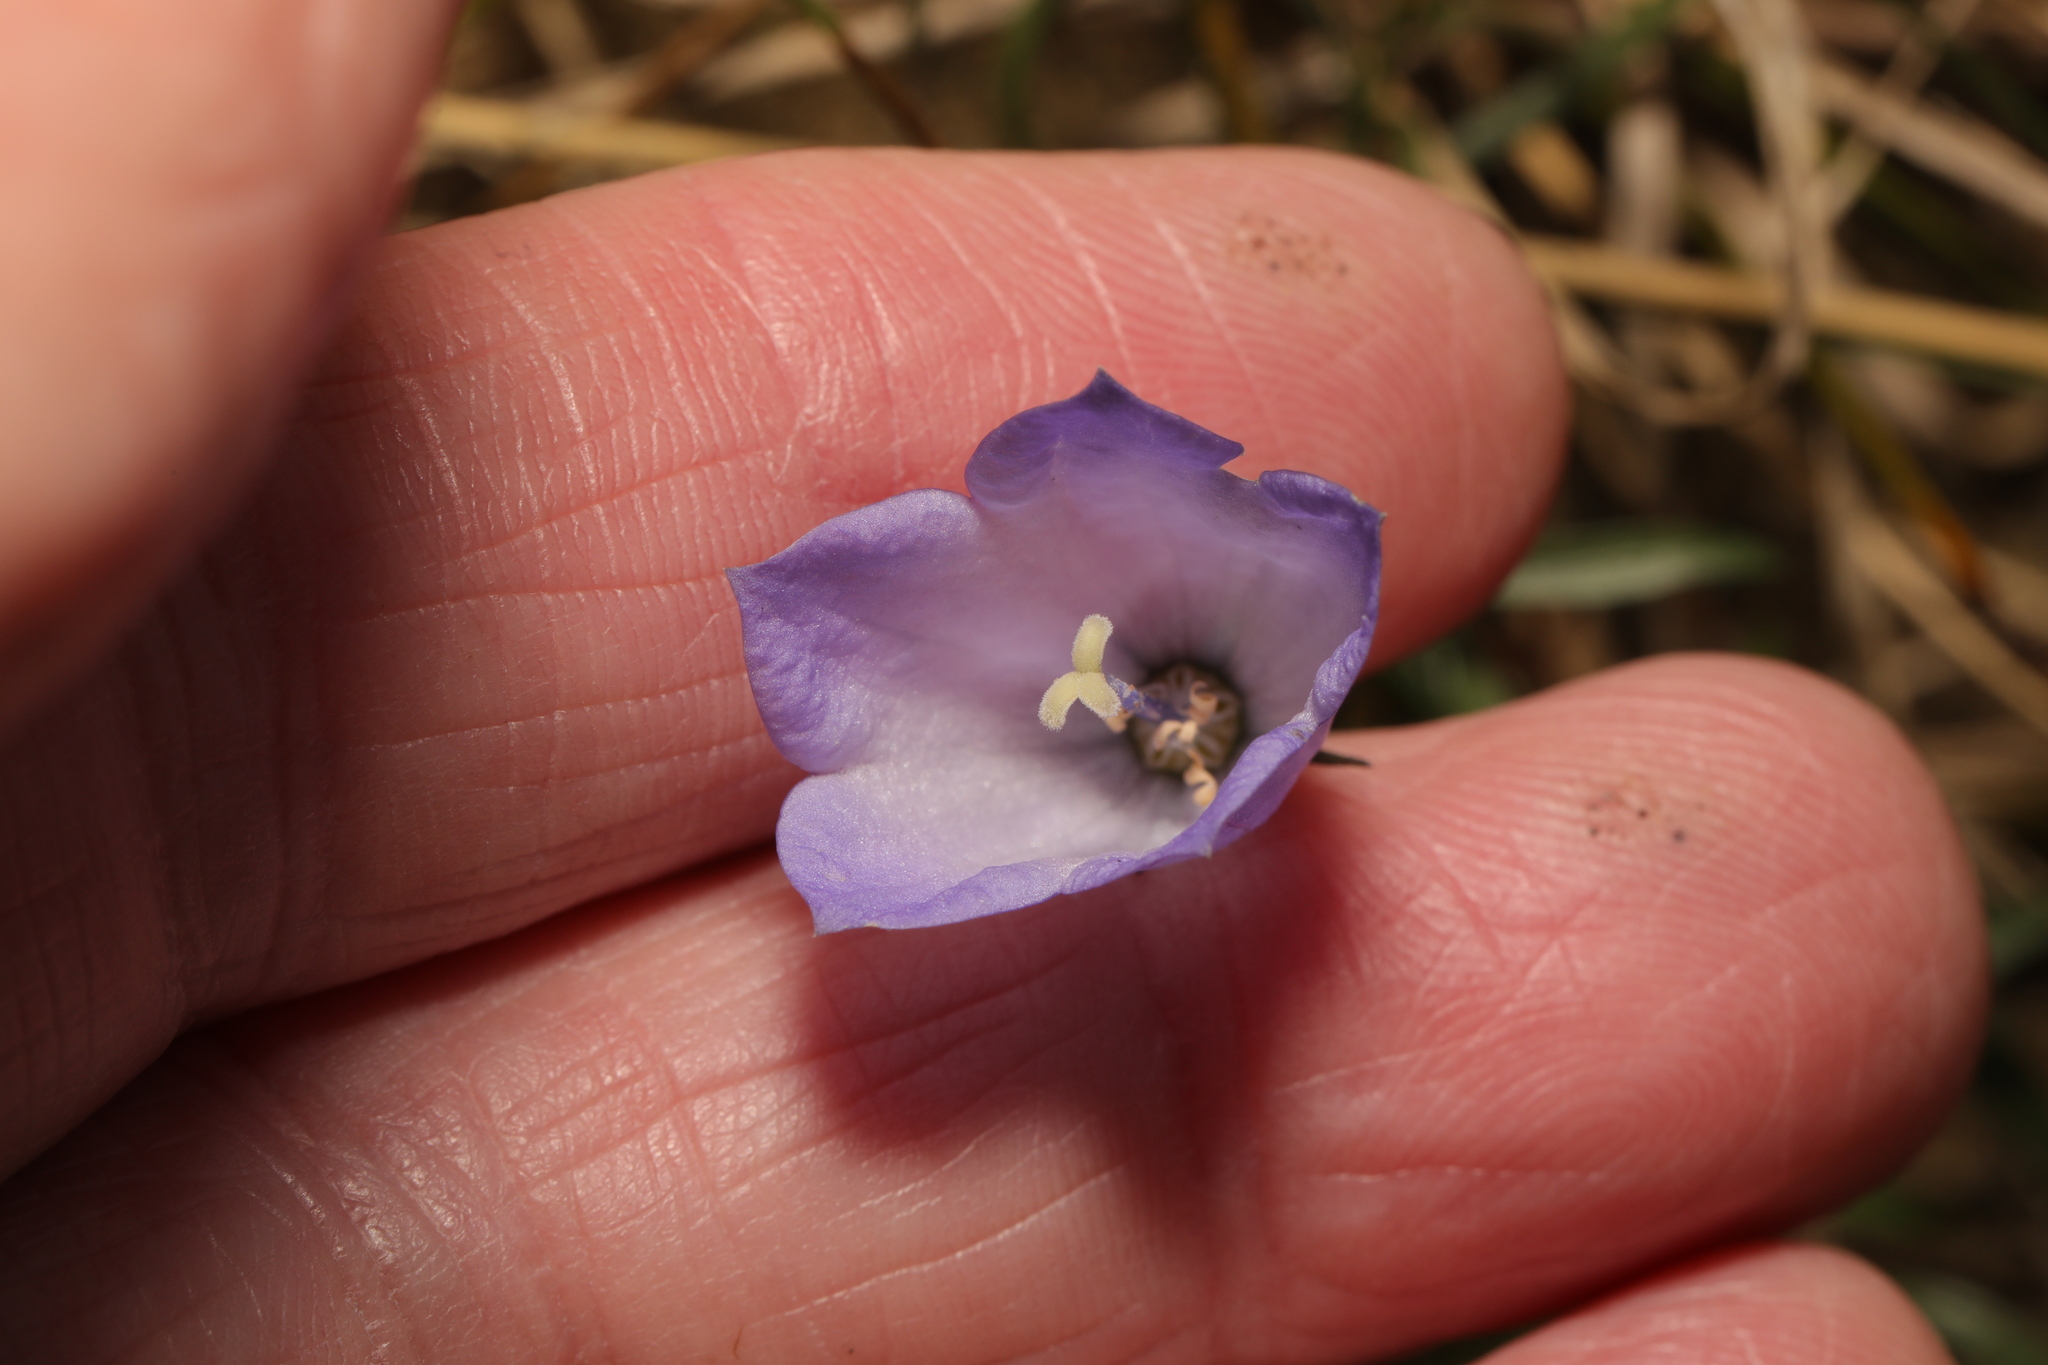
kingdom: Plantae
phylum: Tracheophyta
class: Magnoliopsida
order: Asterales
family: Campanulaceae
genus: Campanula
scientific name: Campanula rotundifolia
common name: Harebell
